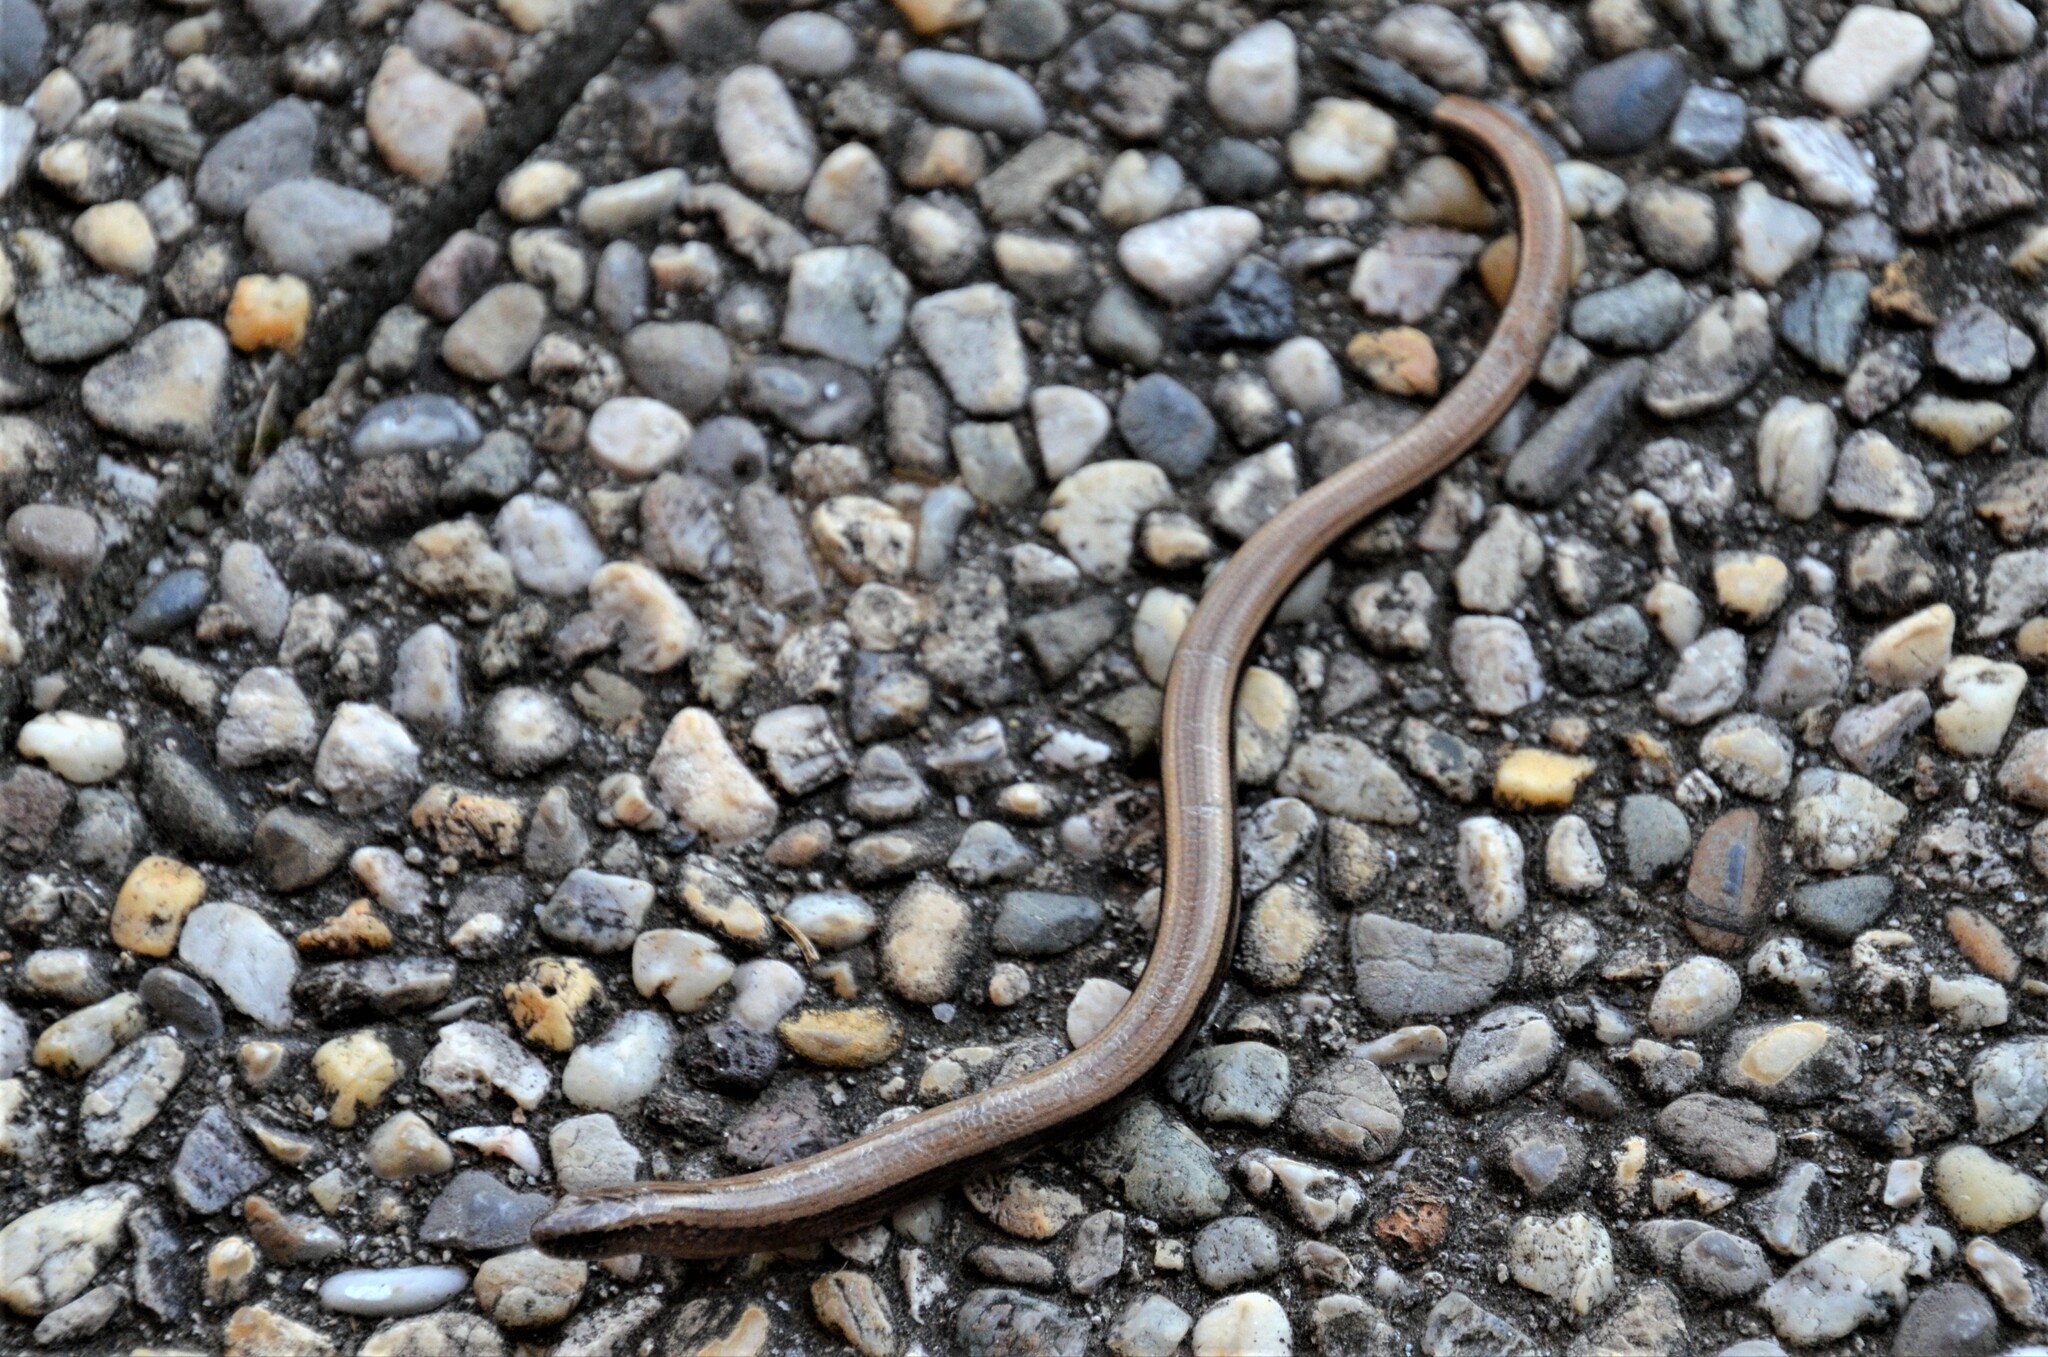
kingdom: Animalia
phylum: Chordata
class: Squamata
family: Anguidae
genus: Anguis
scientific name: Anguis fragilis
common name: Slow worm
